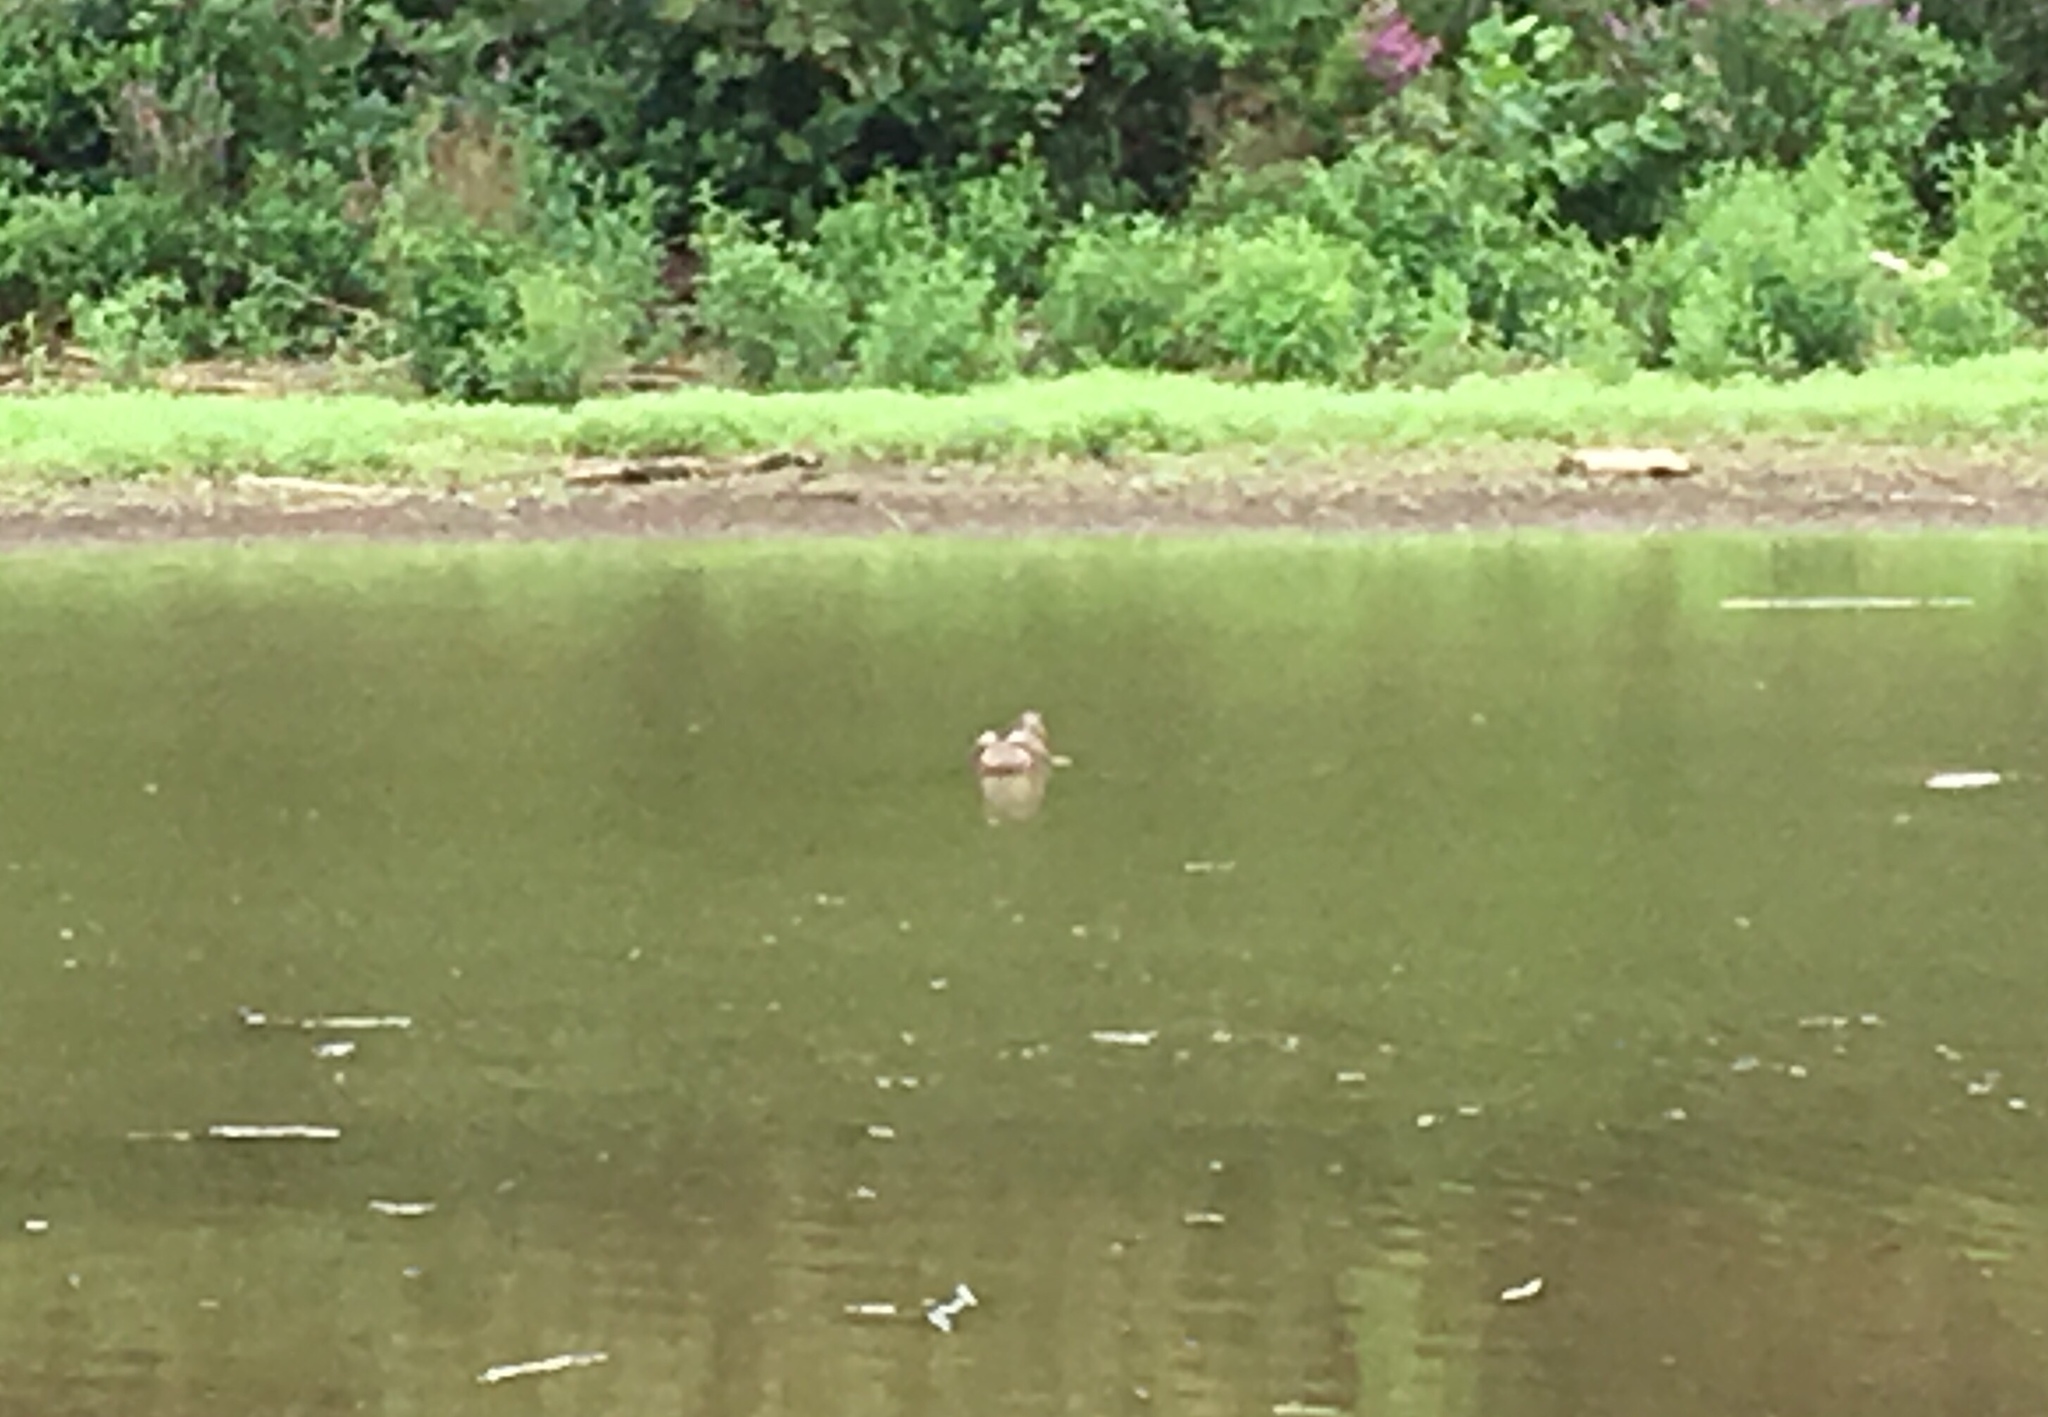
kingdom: Animalia
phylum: Chordata
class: Aves
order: Anseriformes
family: Anatidae
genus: Anas
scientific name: Anas platyrhynchos
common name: Mallard
